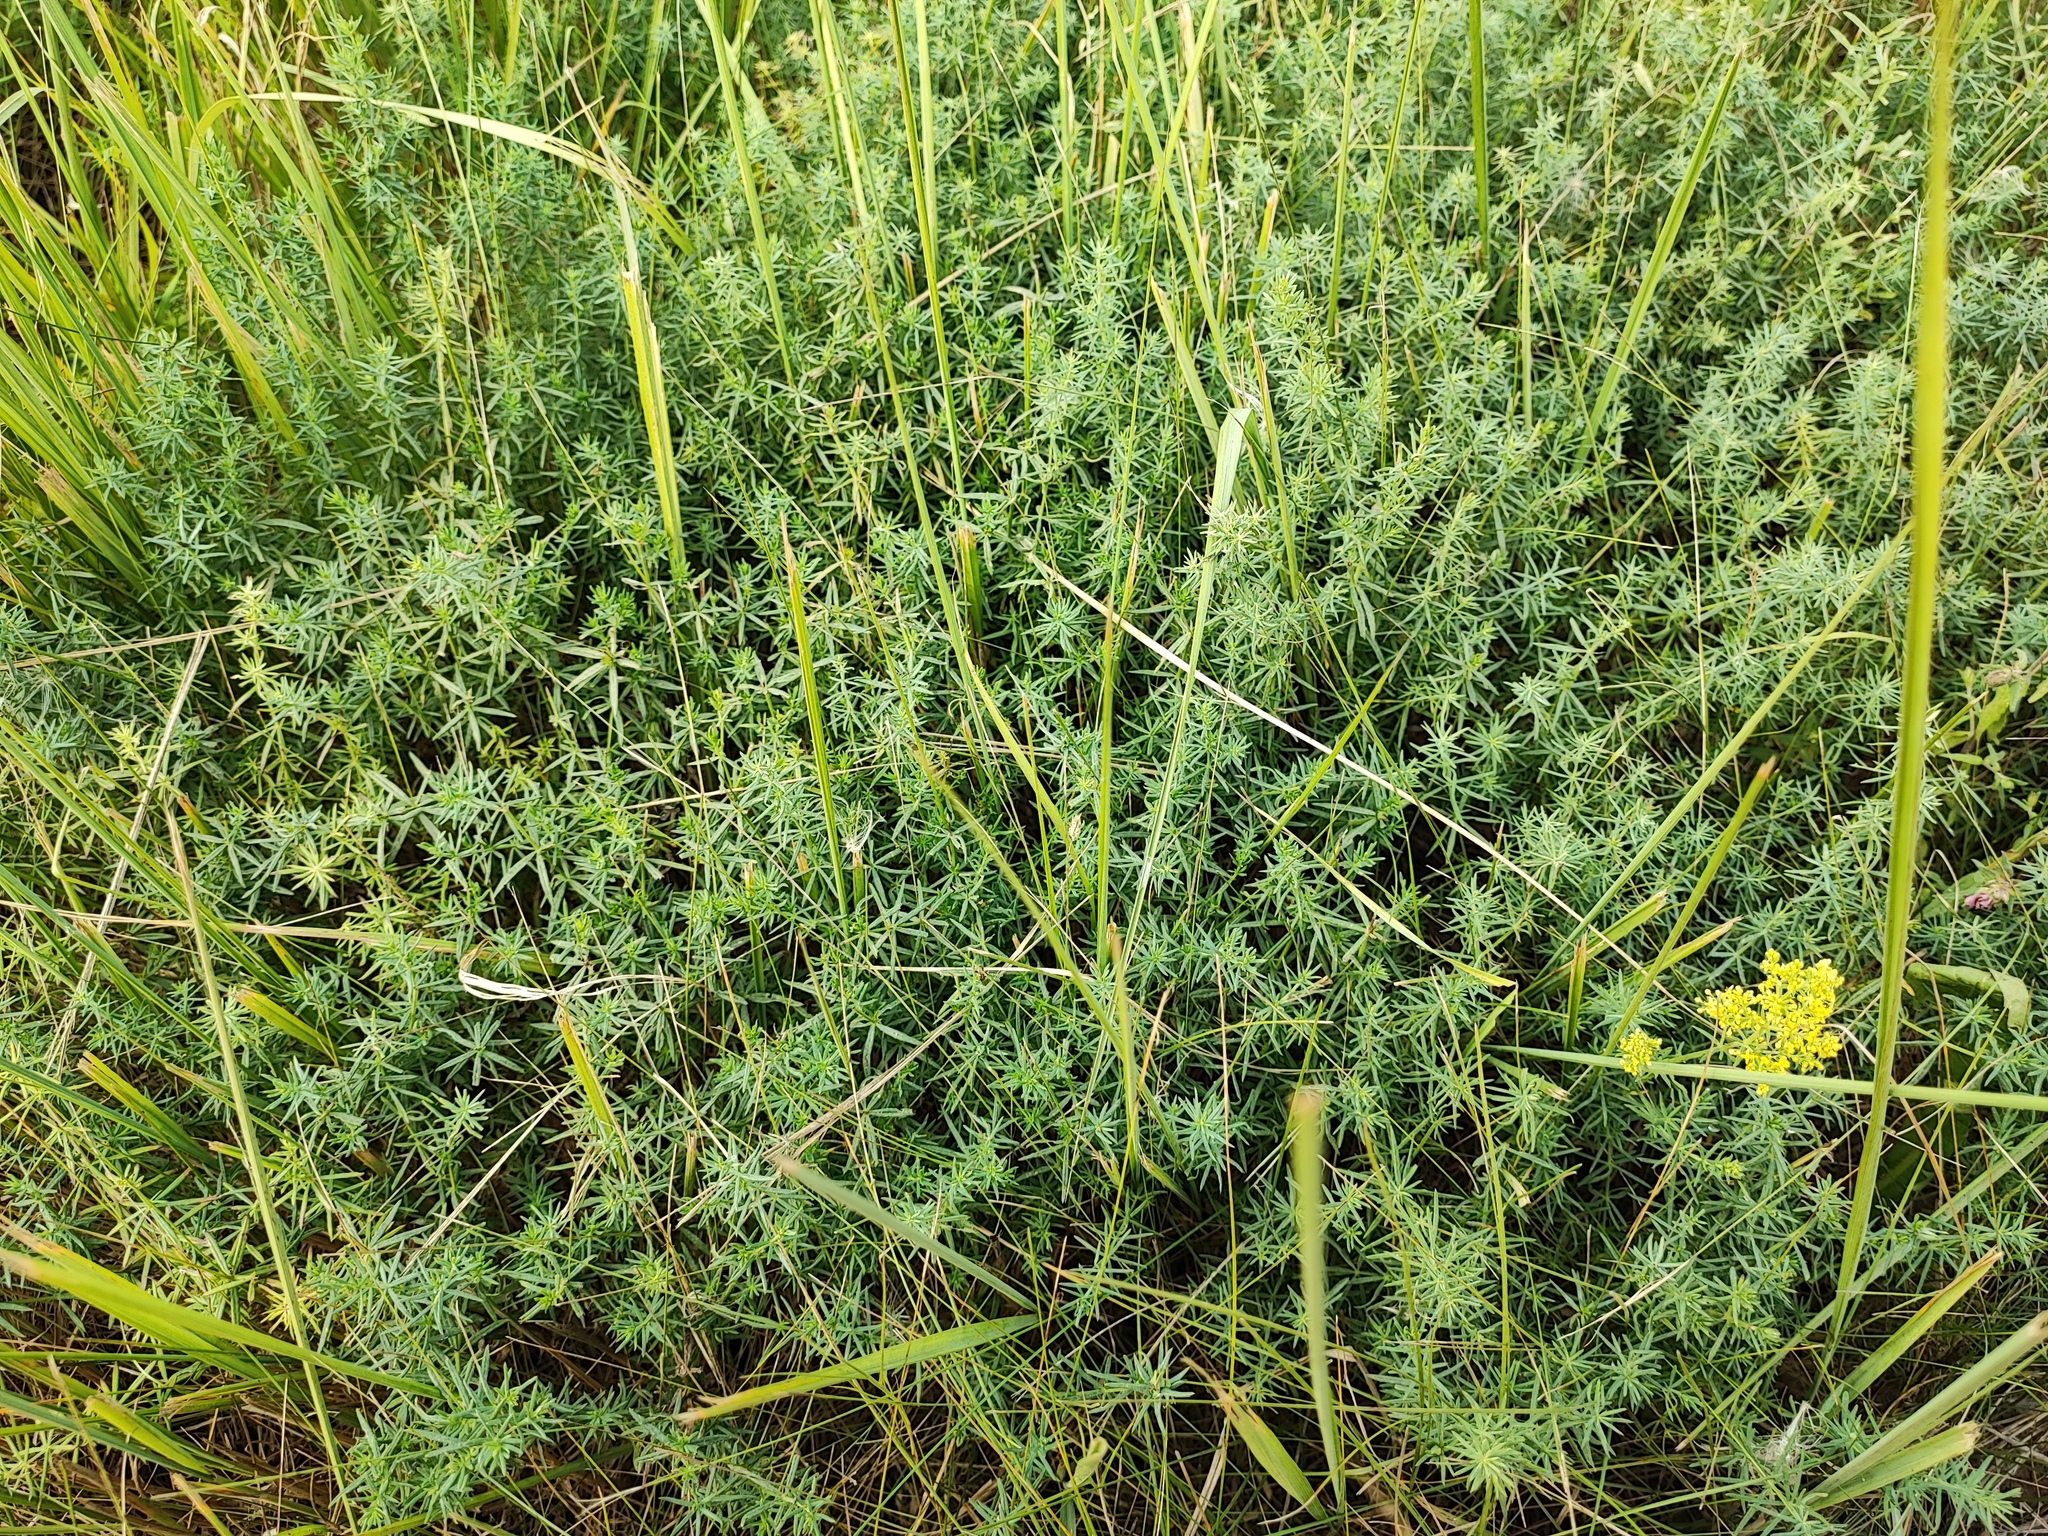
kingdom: Plantae
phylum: Tracheophyta
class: Magnoliopsida
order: Gentianales
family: Rubiaceae
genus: Galium
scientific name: Galium verum
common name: Lady's bedstraw
